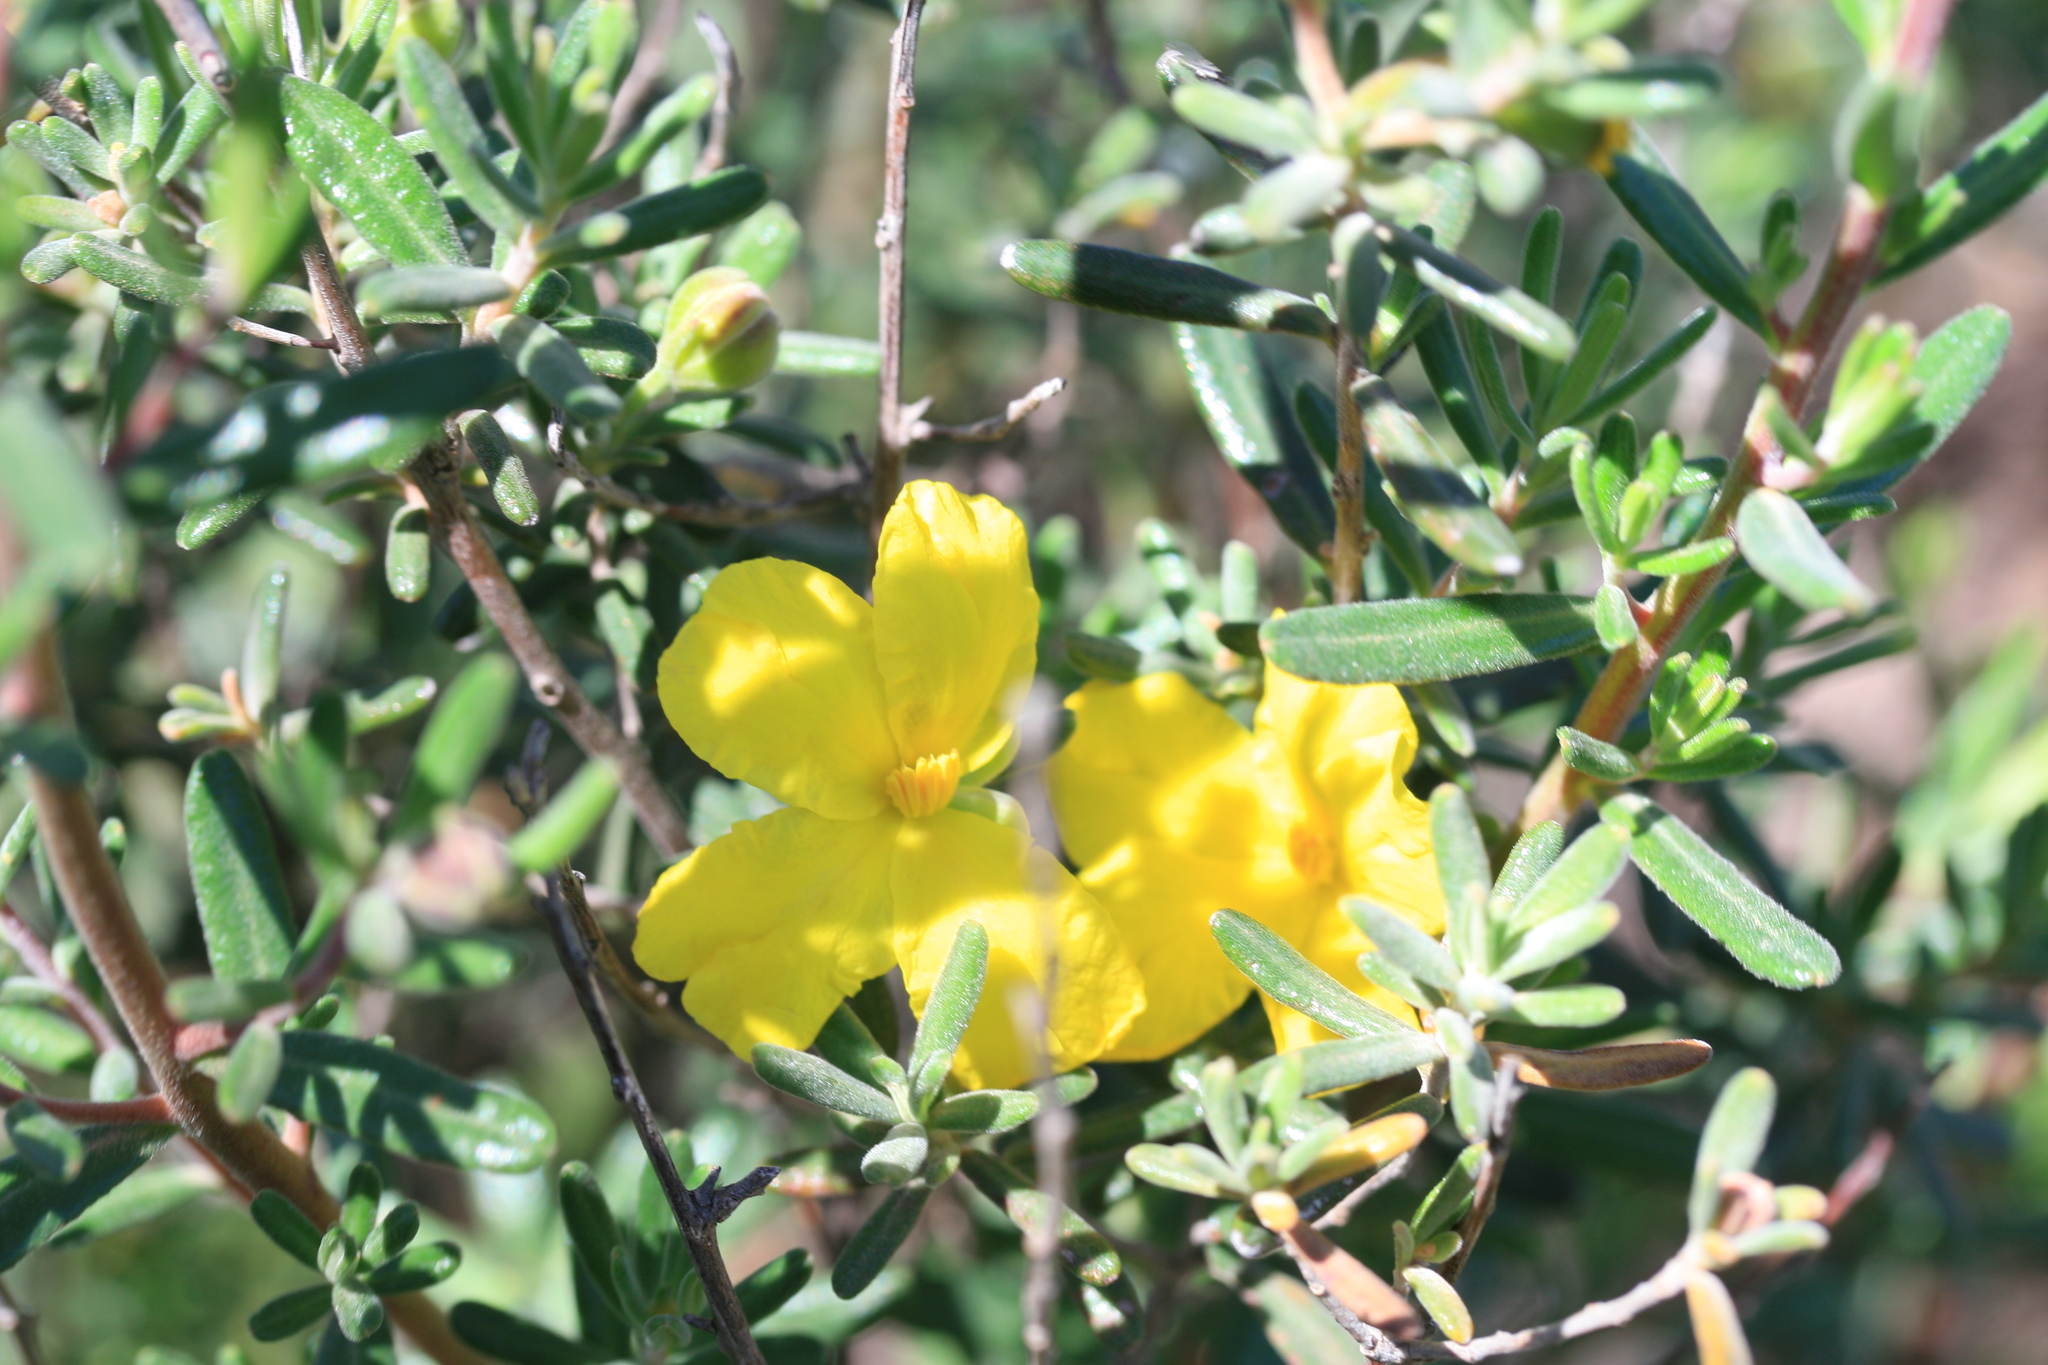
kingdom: Plantae
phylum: Tracheophyta
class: Magnoliopsida
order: Dilleniales
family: Dilleniaceae
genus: Hibbertia
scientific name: Hibbertia hypericoides
